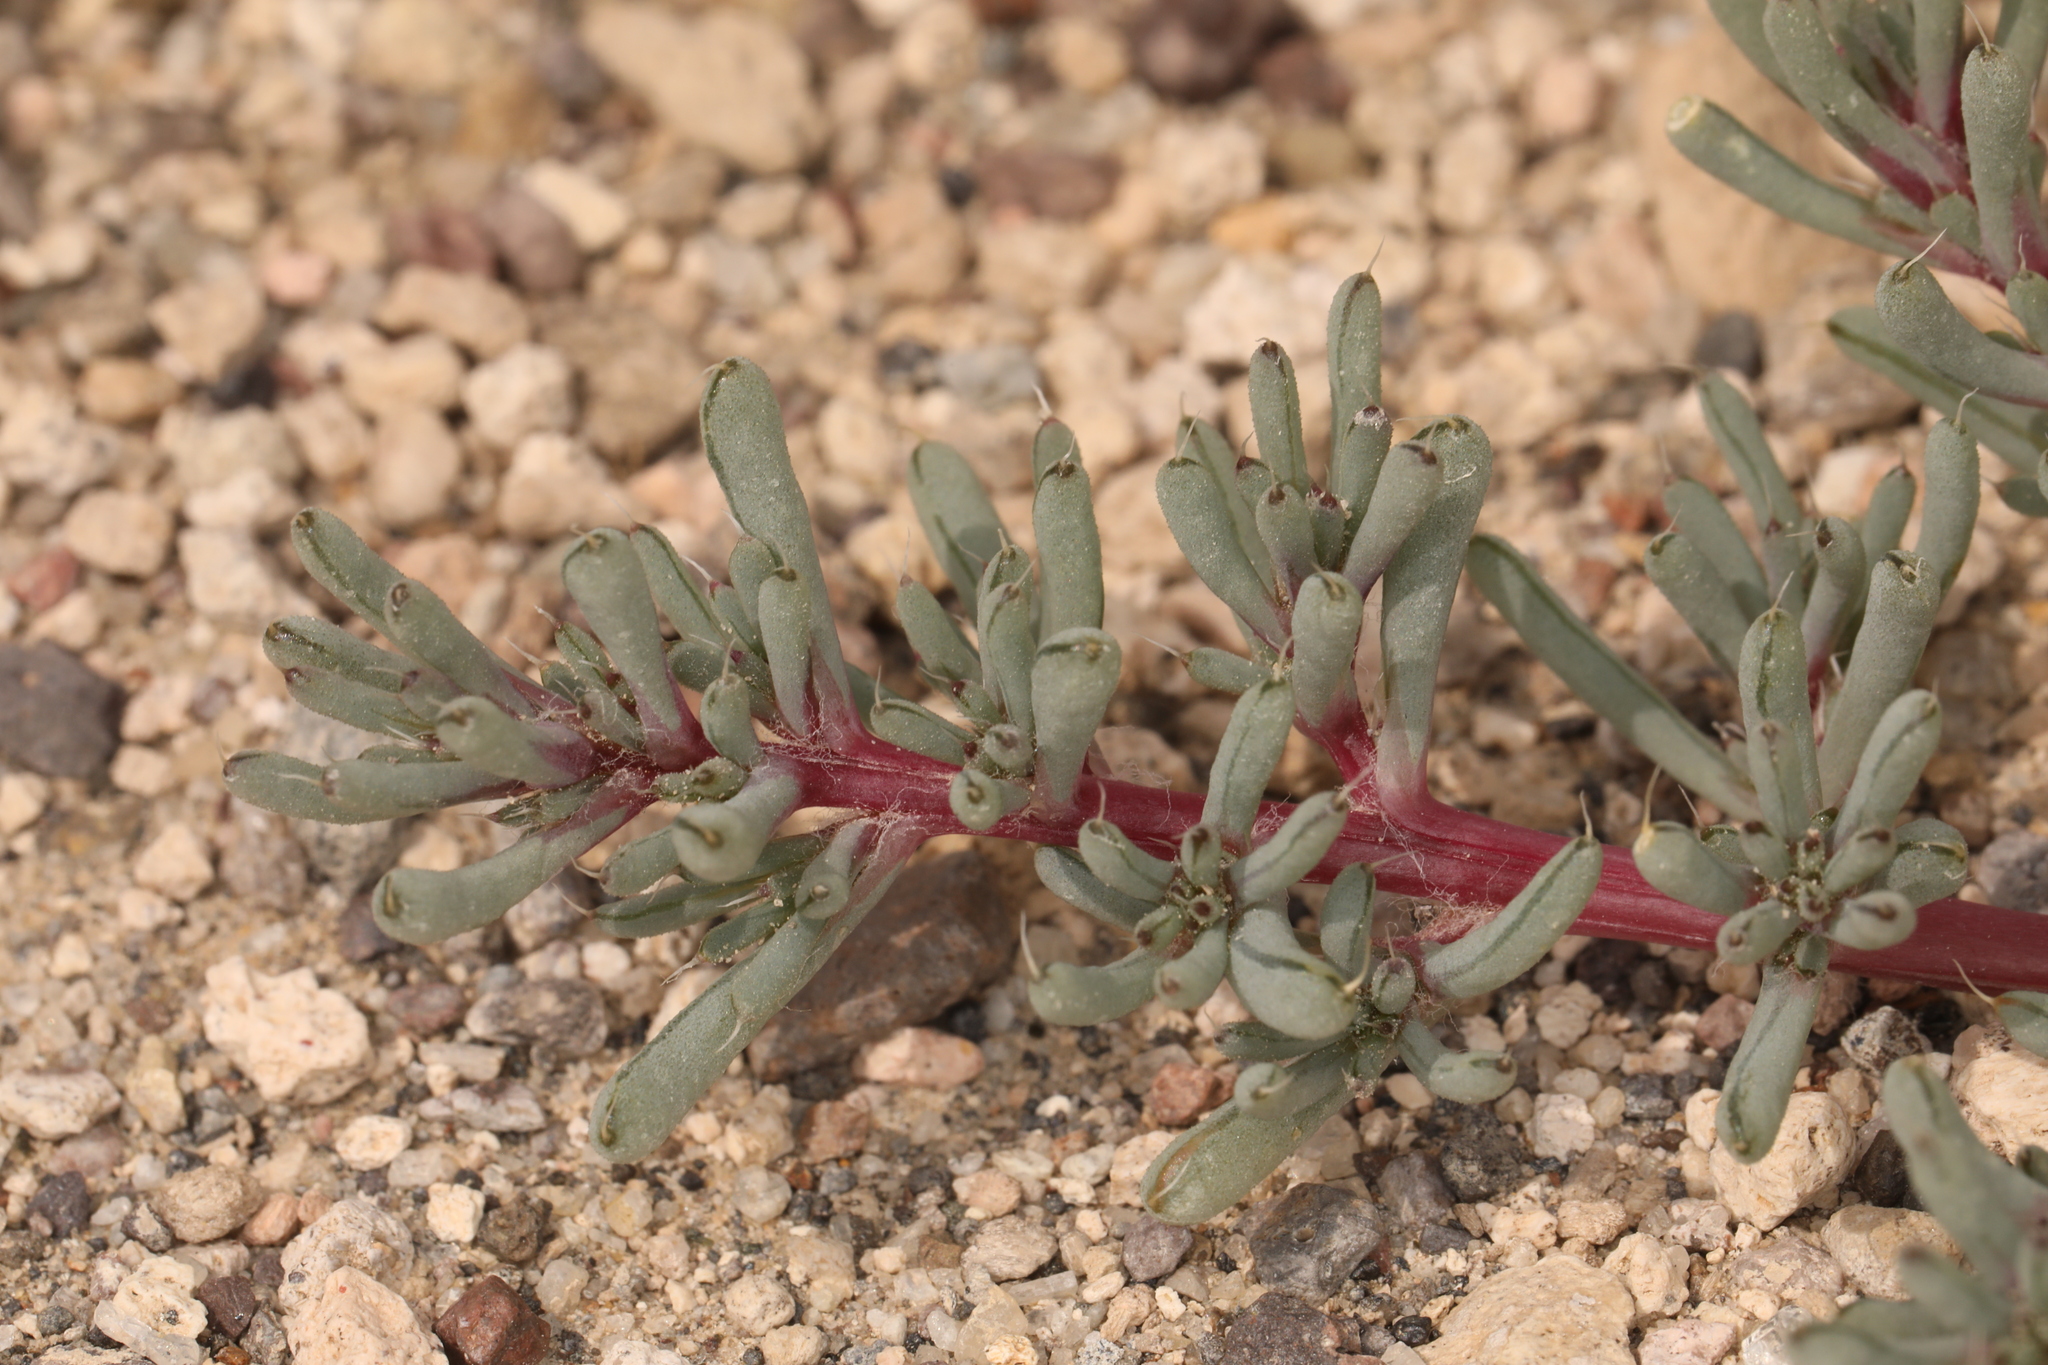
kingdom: Plantae
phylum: Tracheophyta
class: Magnoliopsida
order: Caryophyllales
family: Amaranthaceae
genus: Halogeton
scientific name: Halogeton glomeratus
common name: Saltlover
